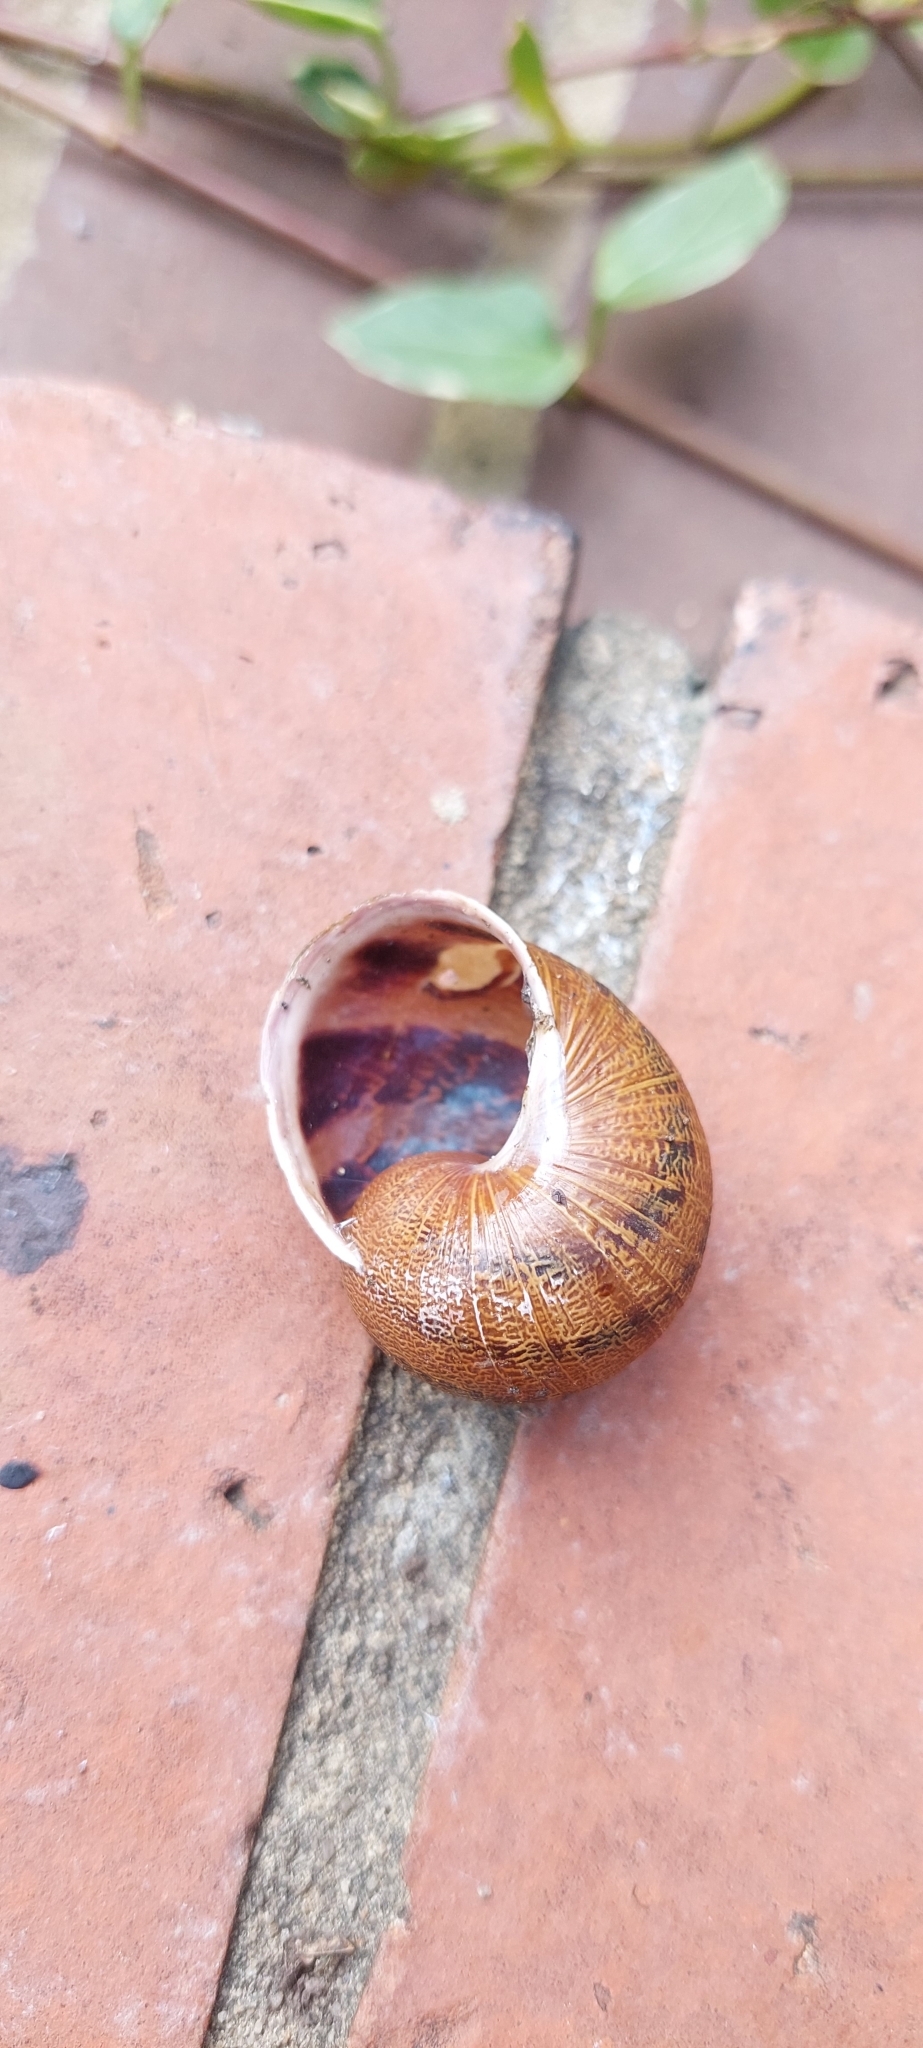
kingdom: Animalia
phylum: Mollusca
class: Gastropoda
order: Stylommatophora
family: Helicidae
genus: Cornu
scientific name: Cornu aspersum
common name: Brown garden snail
